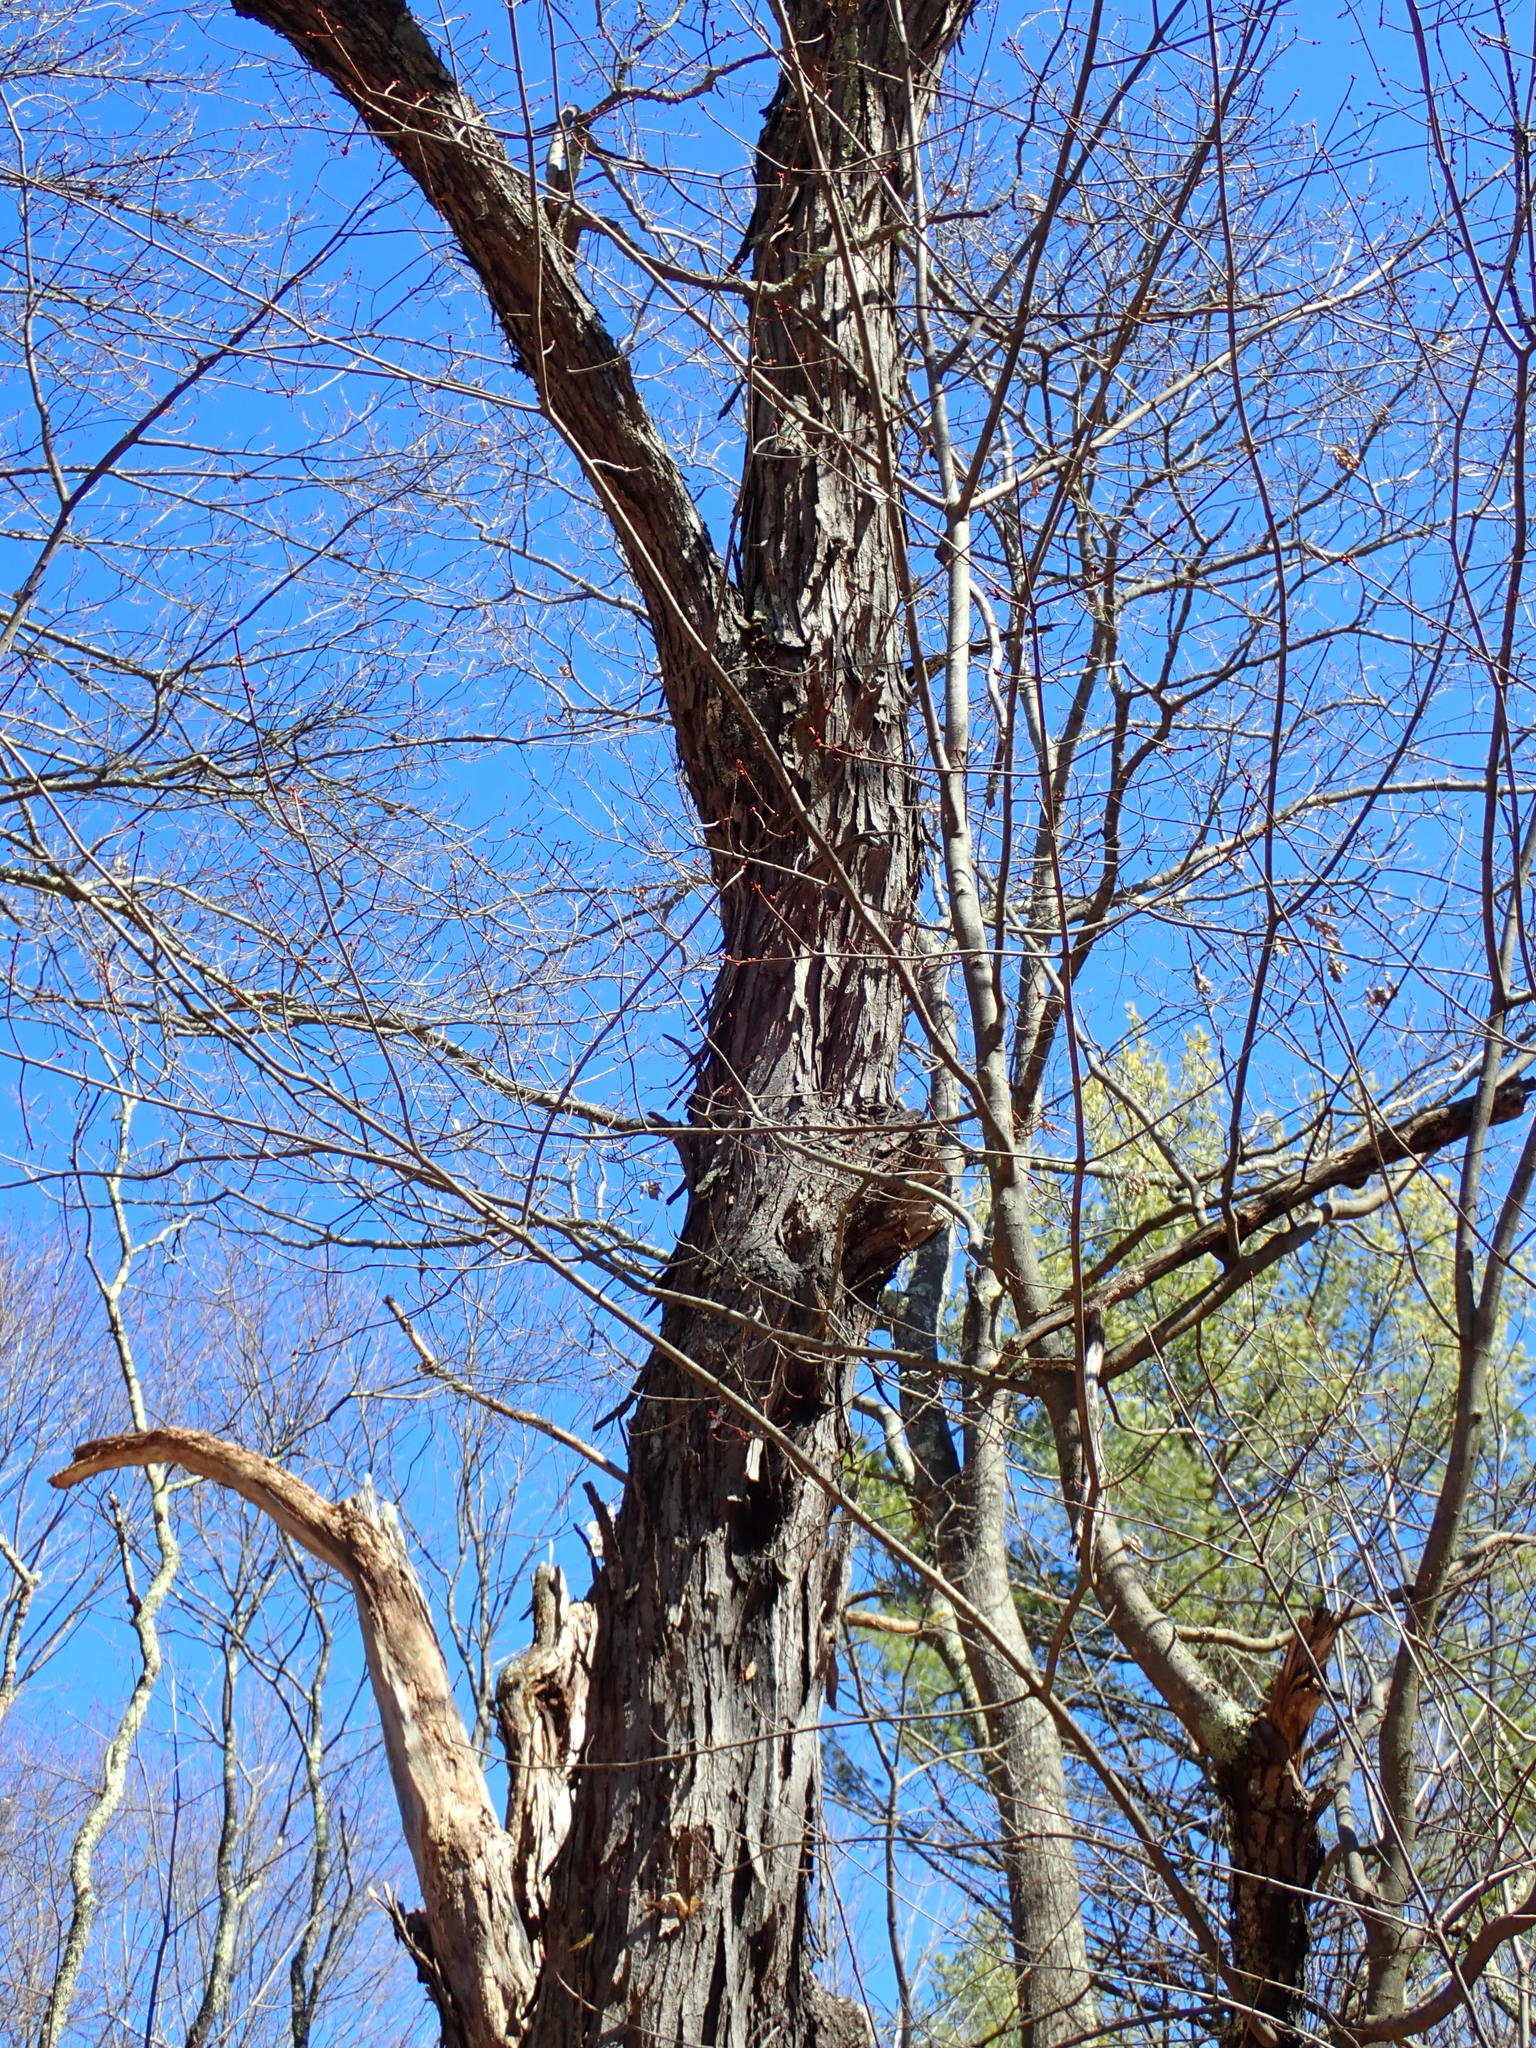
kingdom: Plantae
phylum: Tracheophyta
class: Magnoliopsida
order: Fagales
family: Juglandaceae
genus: Carya
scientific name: Carya ovata
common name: Shagbark hickory
